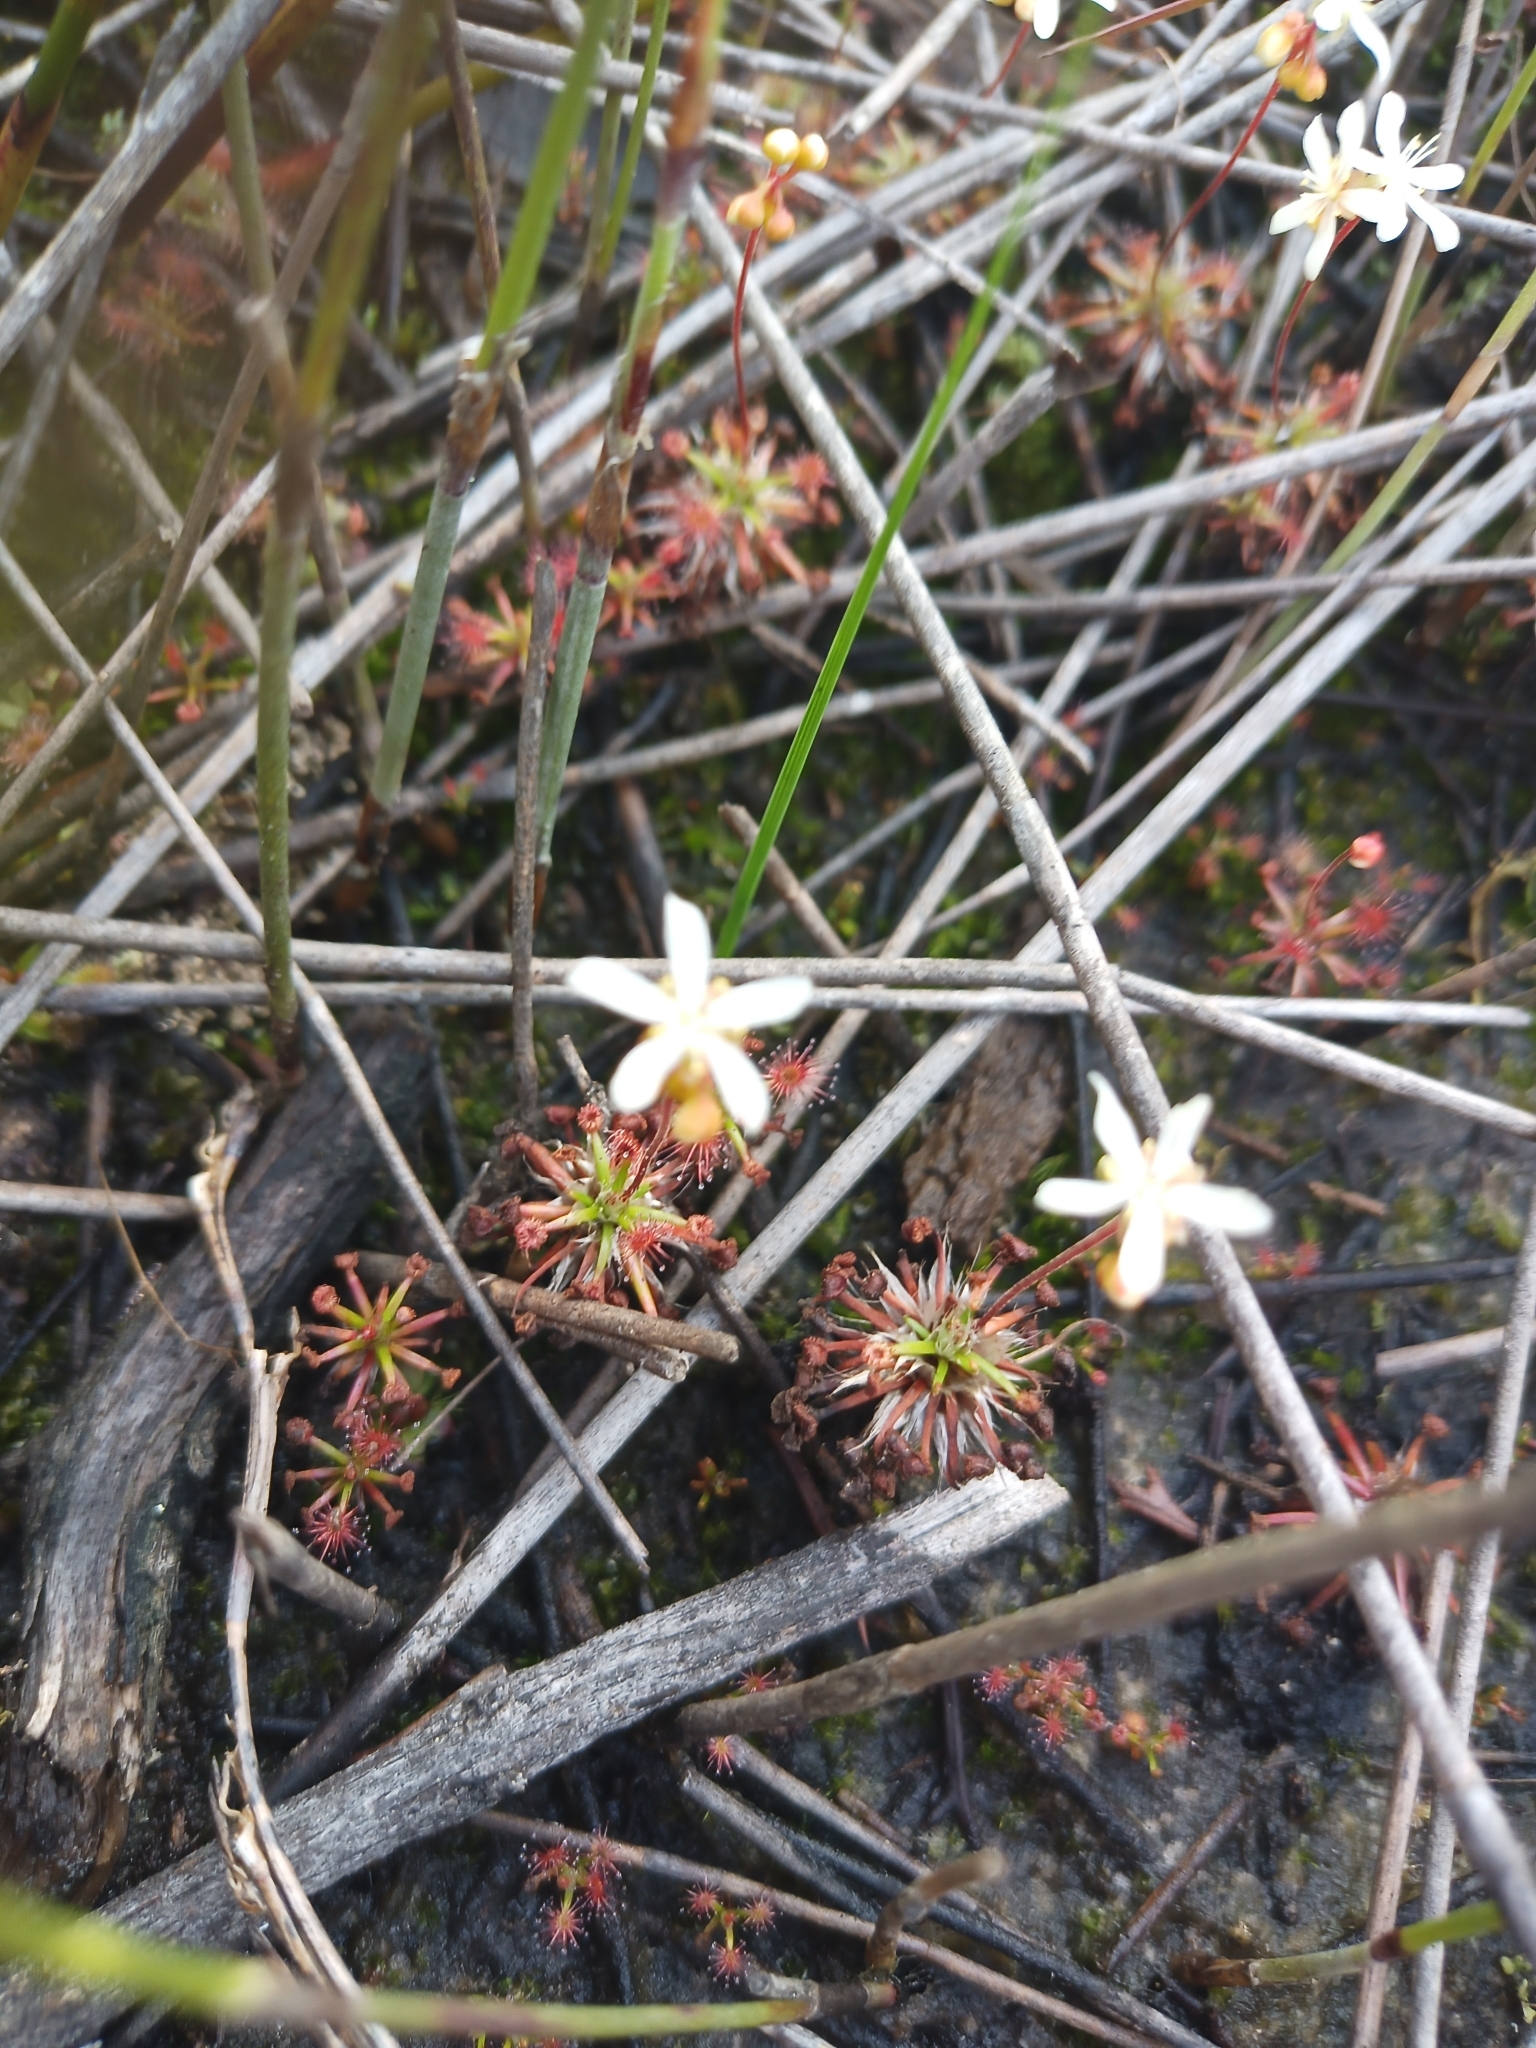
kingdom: Plantae
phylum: Tracheophyta
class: Magnoliopsida
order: Caryophyllales
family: Droseraceae
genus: Drosera
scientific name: Drosera verrucata
